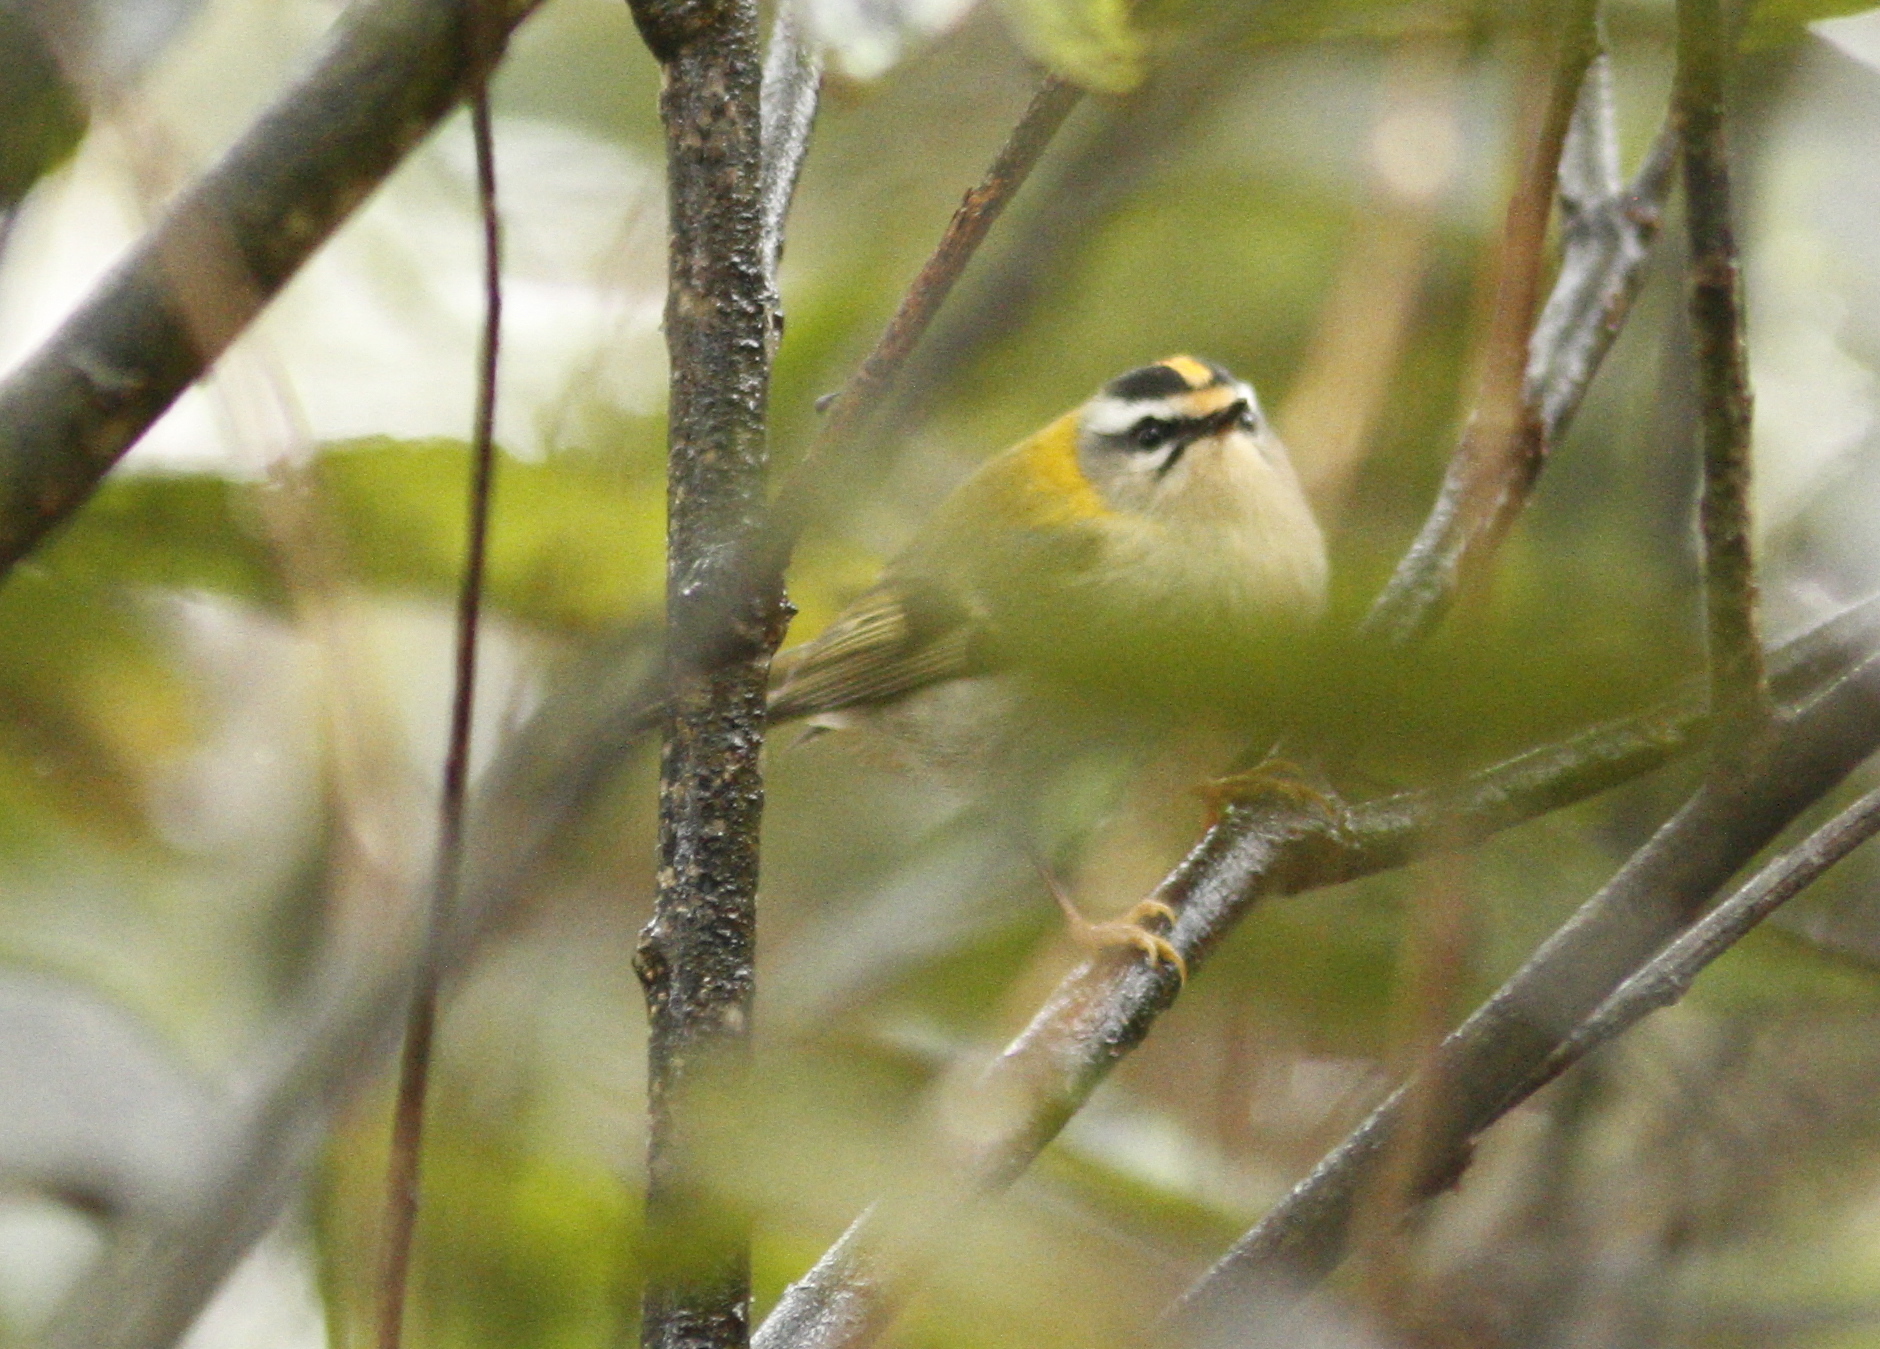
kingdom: Animalia
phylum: Chordata
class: Aves
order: Passeriformes
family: Regulidae
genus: Regulus
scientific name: Regulus ignicapilla
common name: Firecrest
